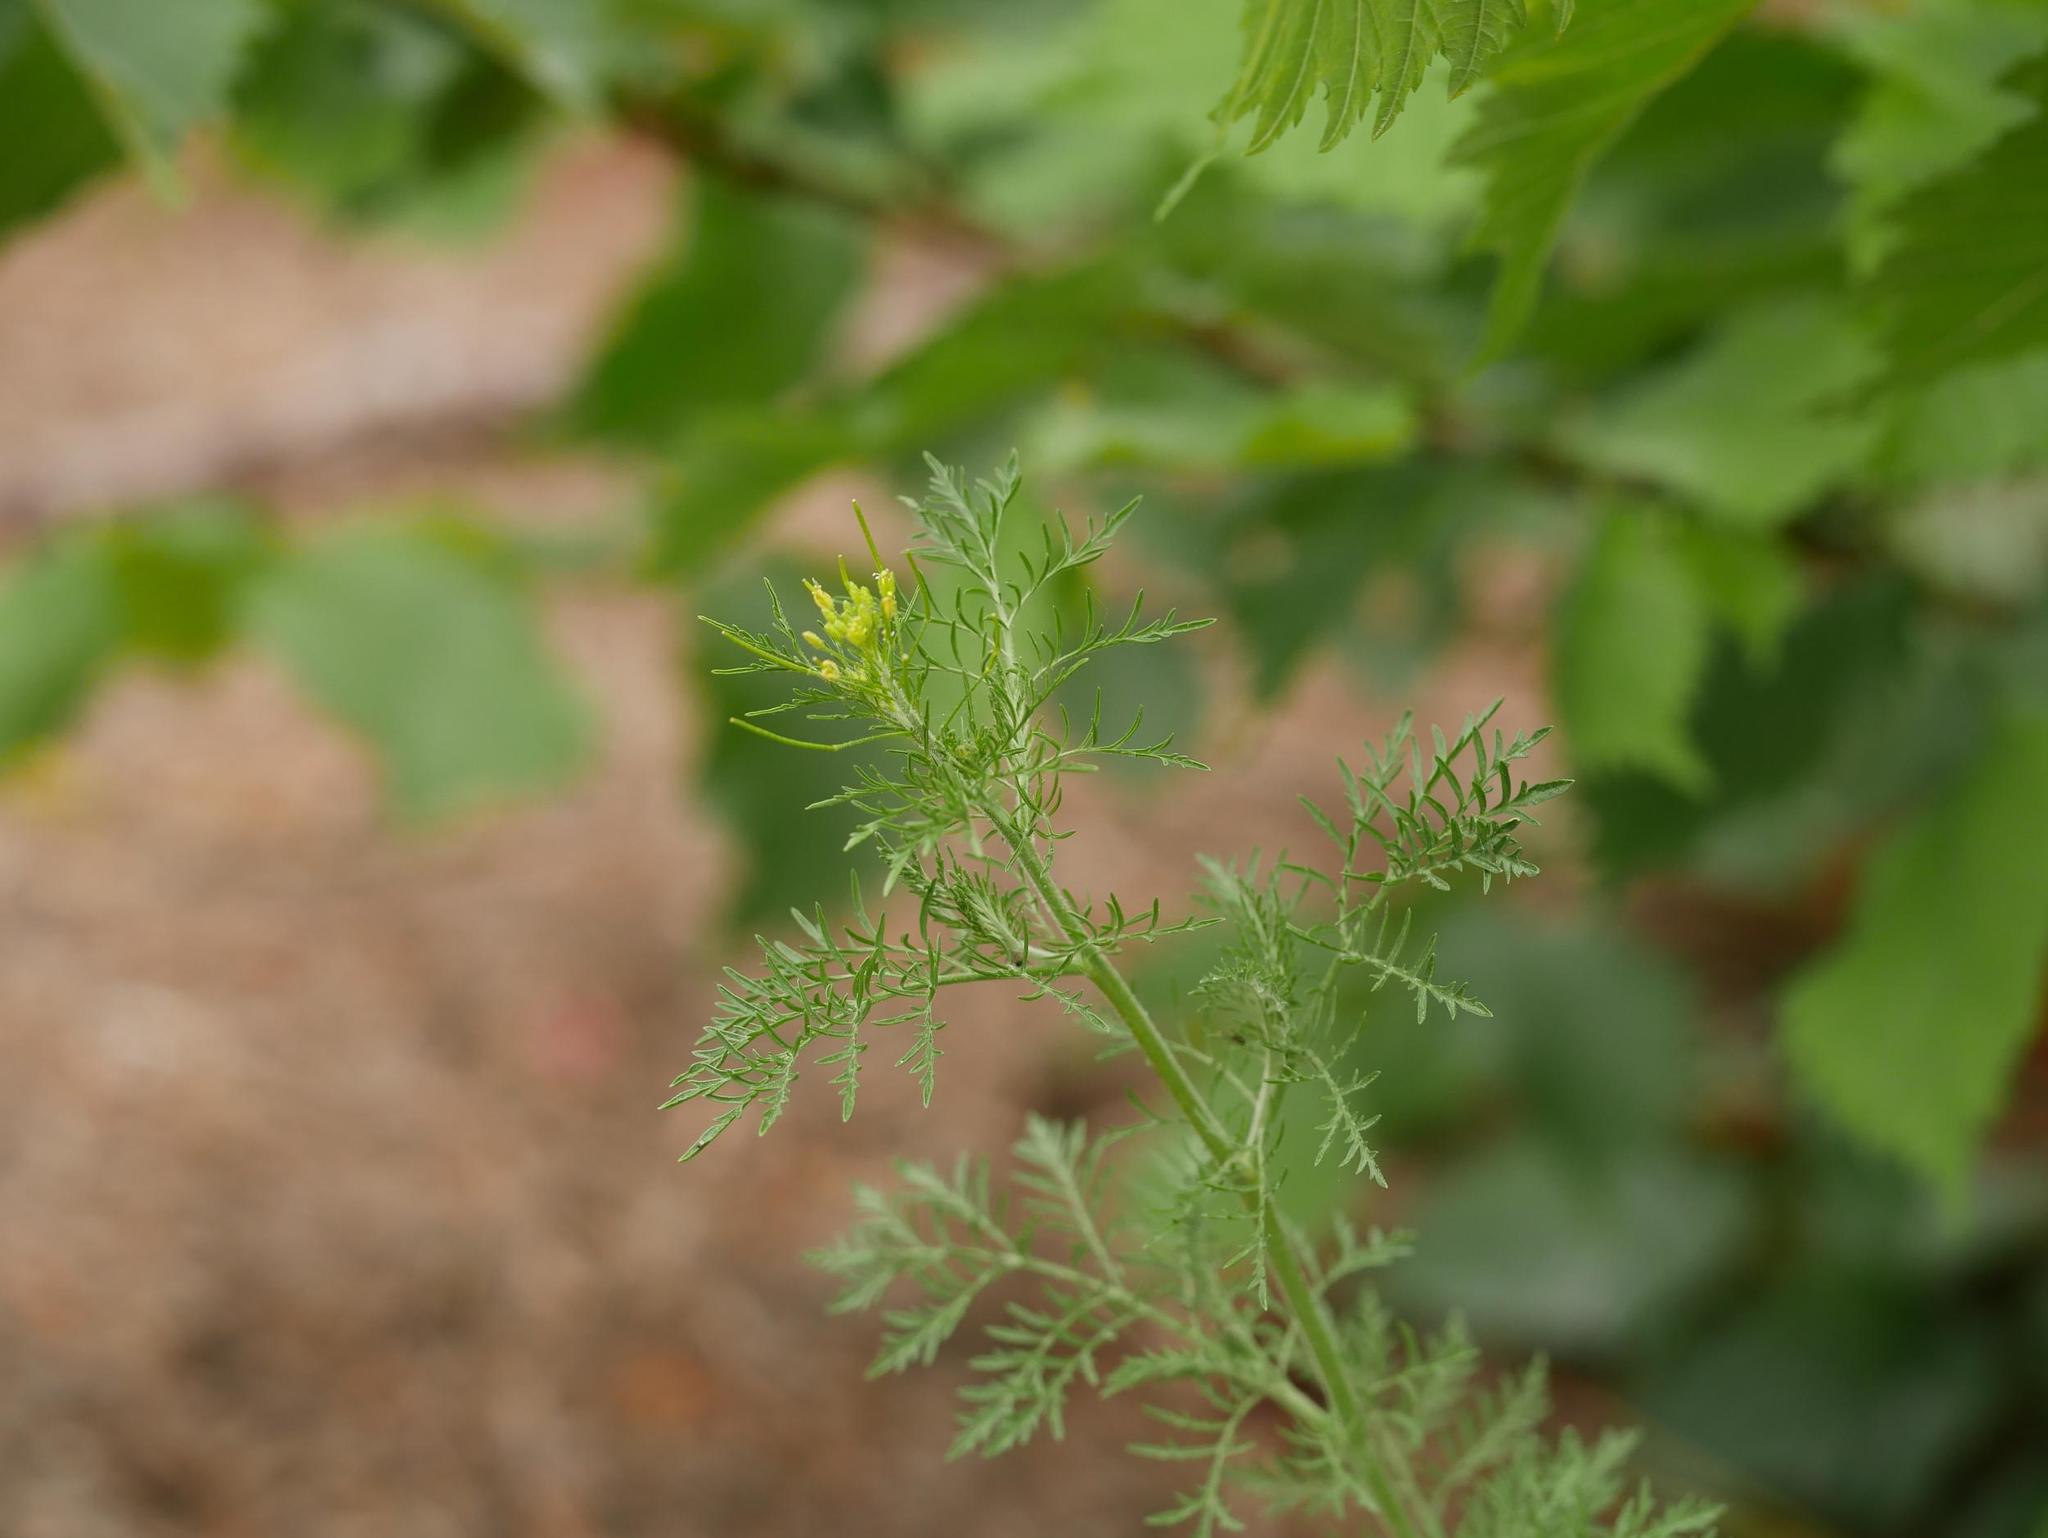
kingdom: Plantae
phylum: Tracheophyta
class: Magnoliopsida
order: Brassicales
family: Brassicaceae
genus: Descurainia
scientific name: Descurainia sophia
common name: Flixweed
